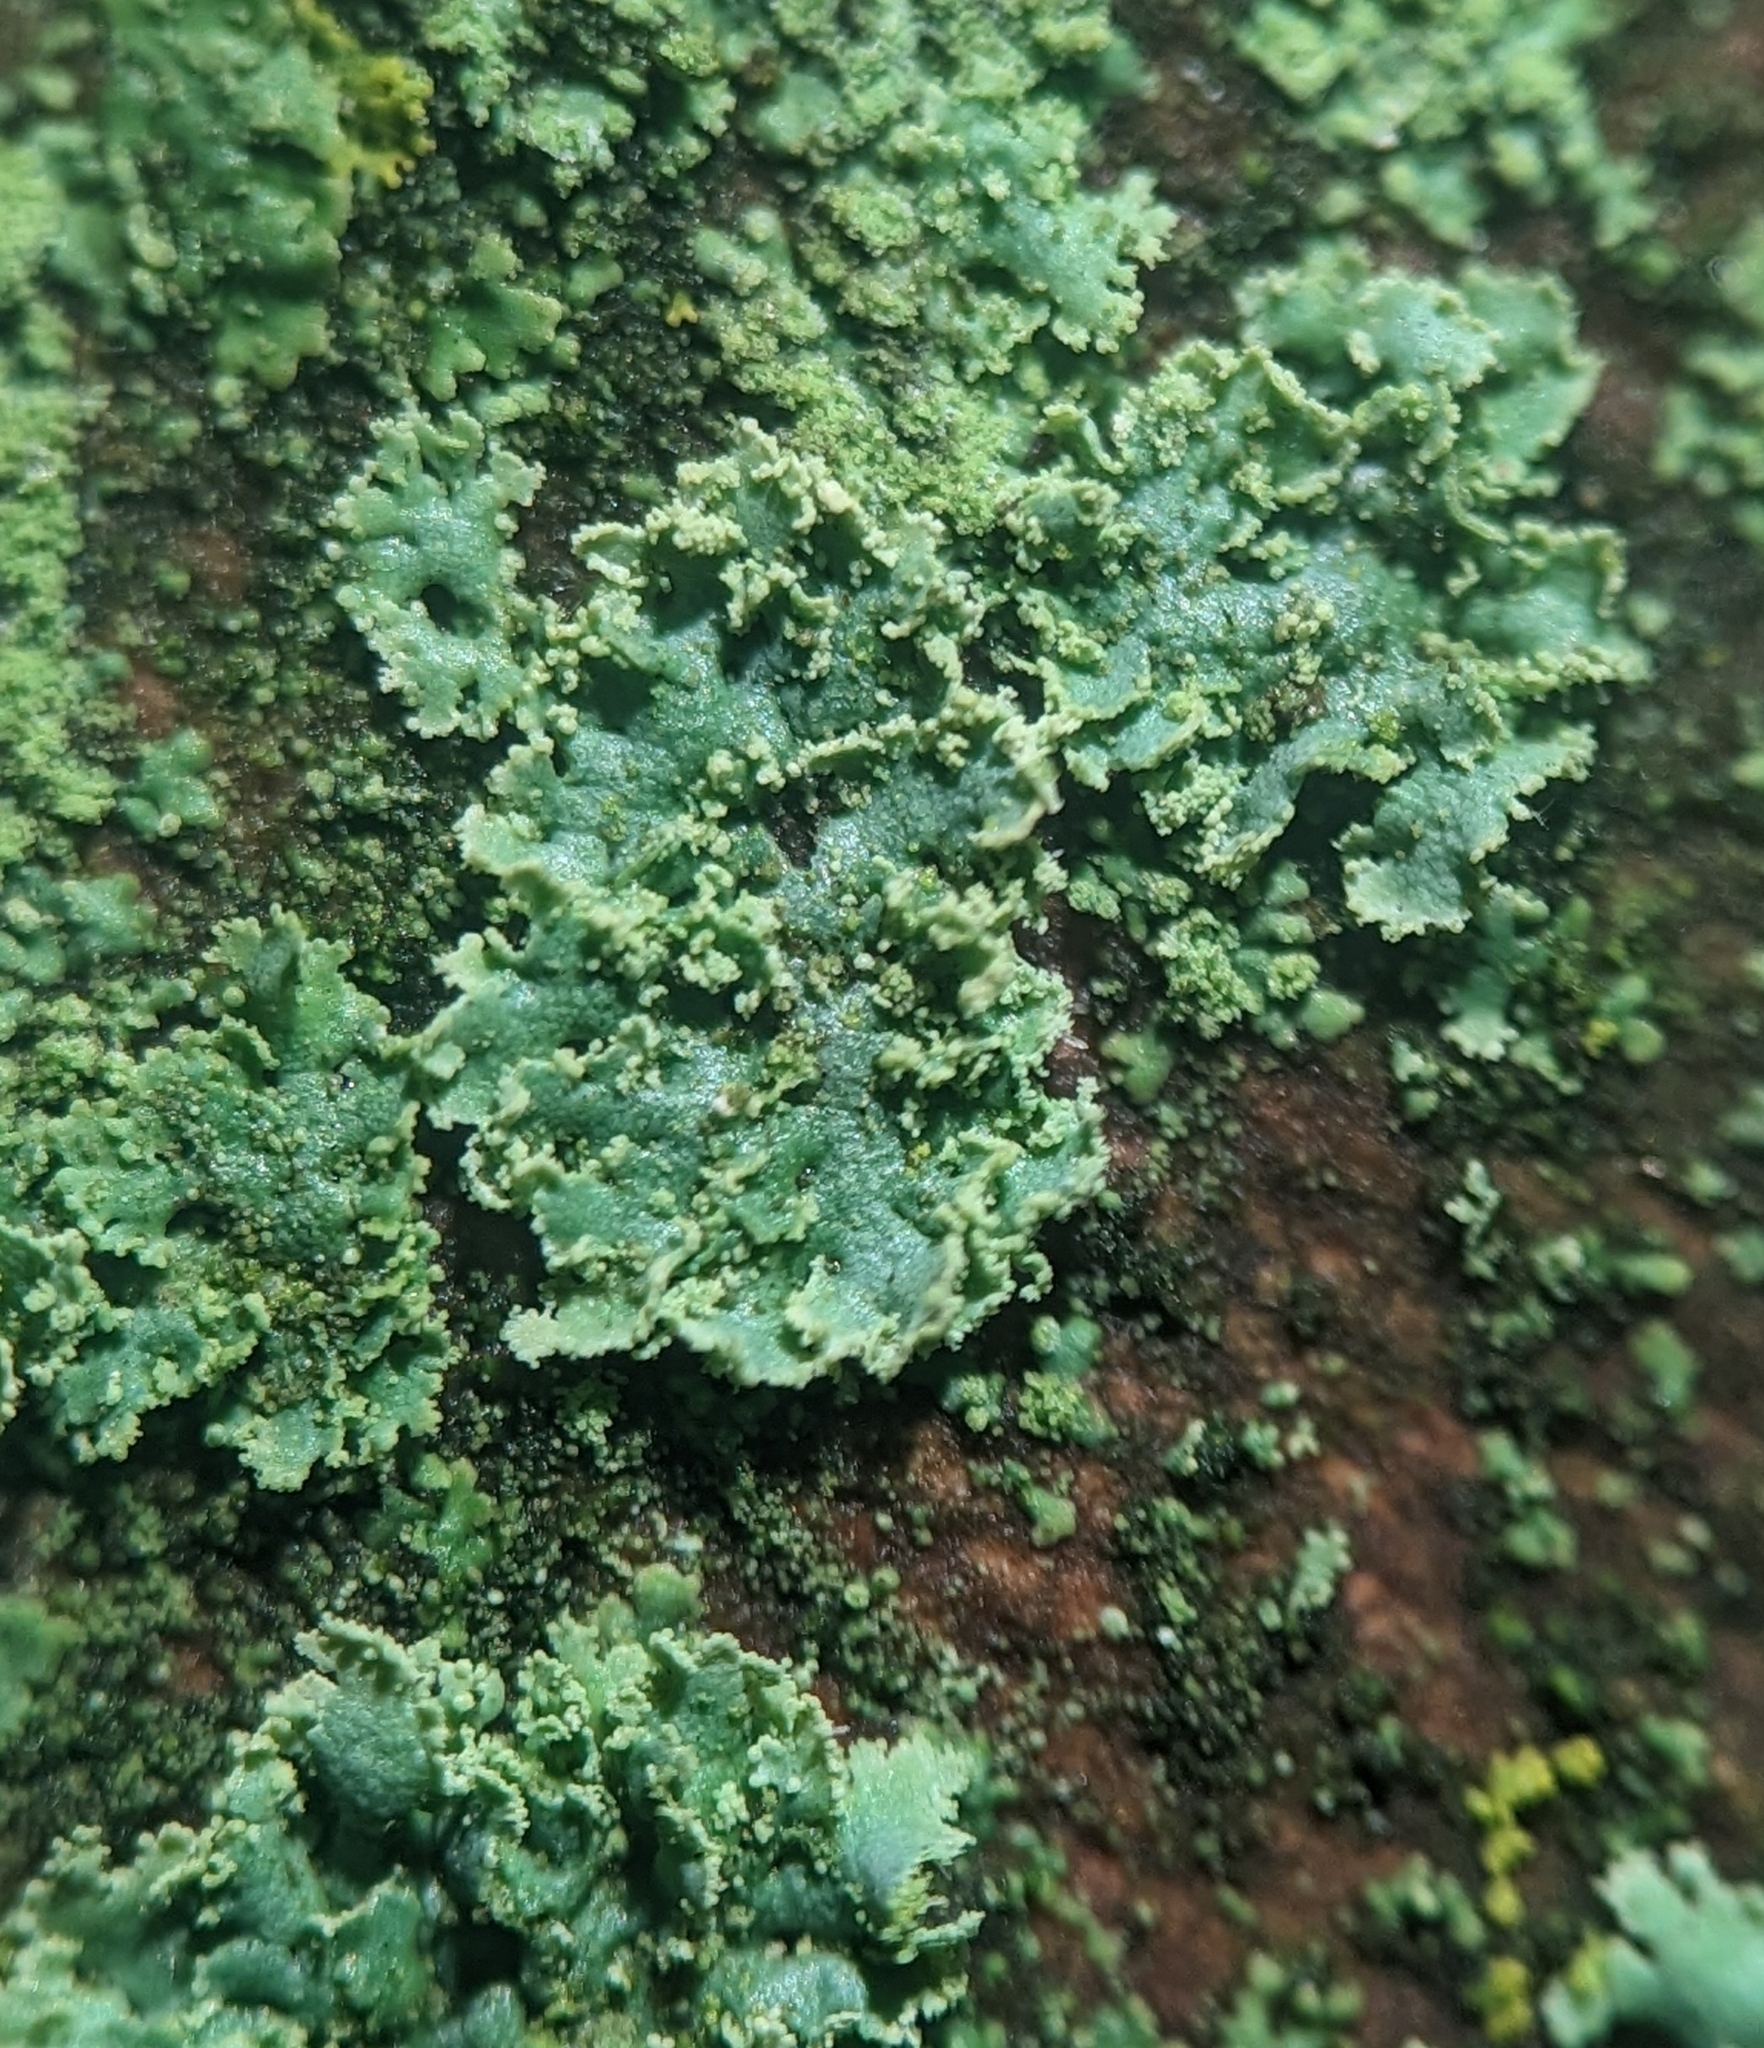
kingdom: Fungi
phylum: Ascomycota
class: Lecanoromycetes
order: Caliciales
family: Physciaceae
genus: Physcia
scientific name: Physcia millegrana
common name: Rosette lichen
